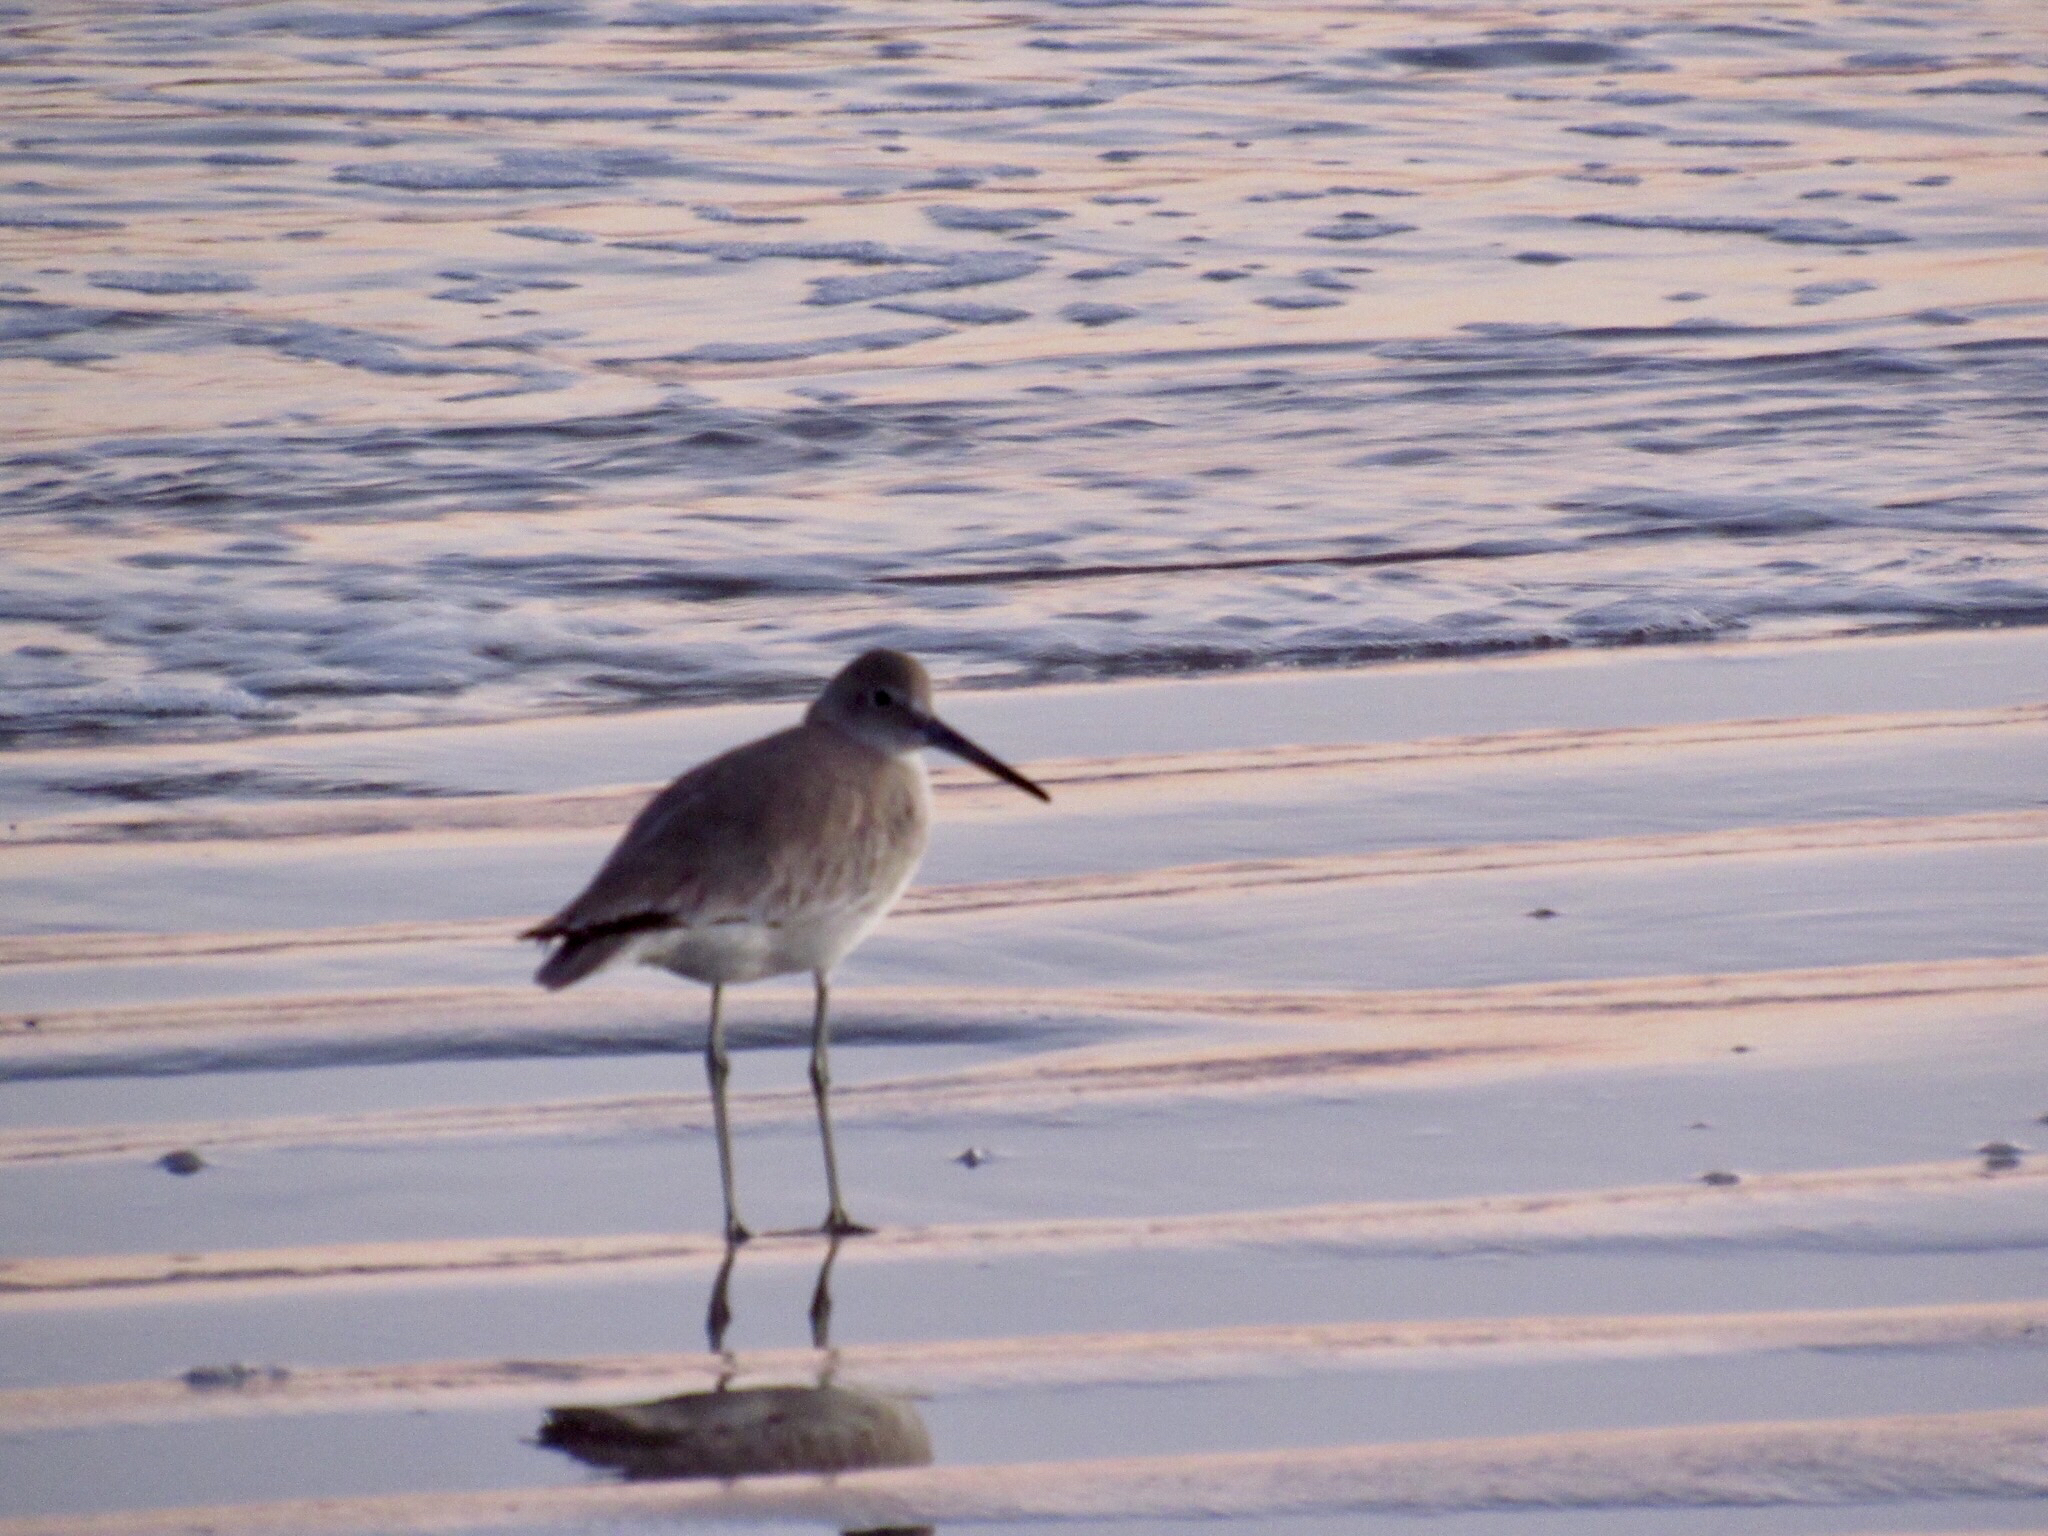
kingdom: Animalia
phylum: Chordata
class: Aves
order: Charadriiformes
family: Scolopacidae
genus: Tringa
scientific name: Tringa semipalmata
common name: Willet
